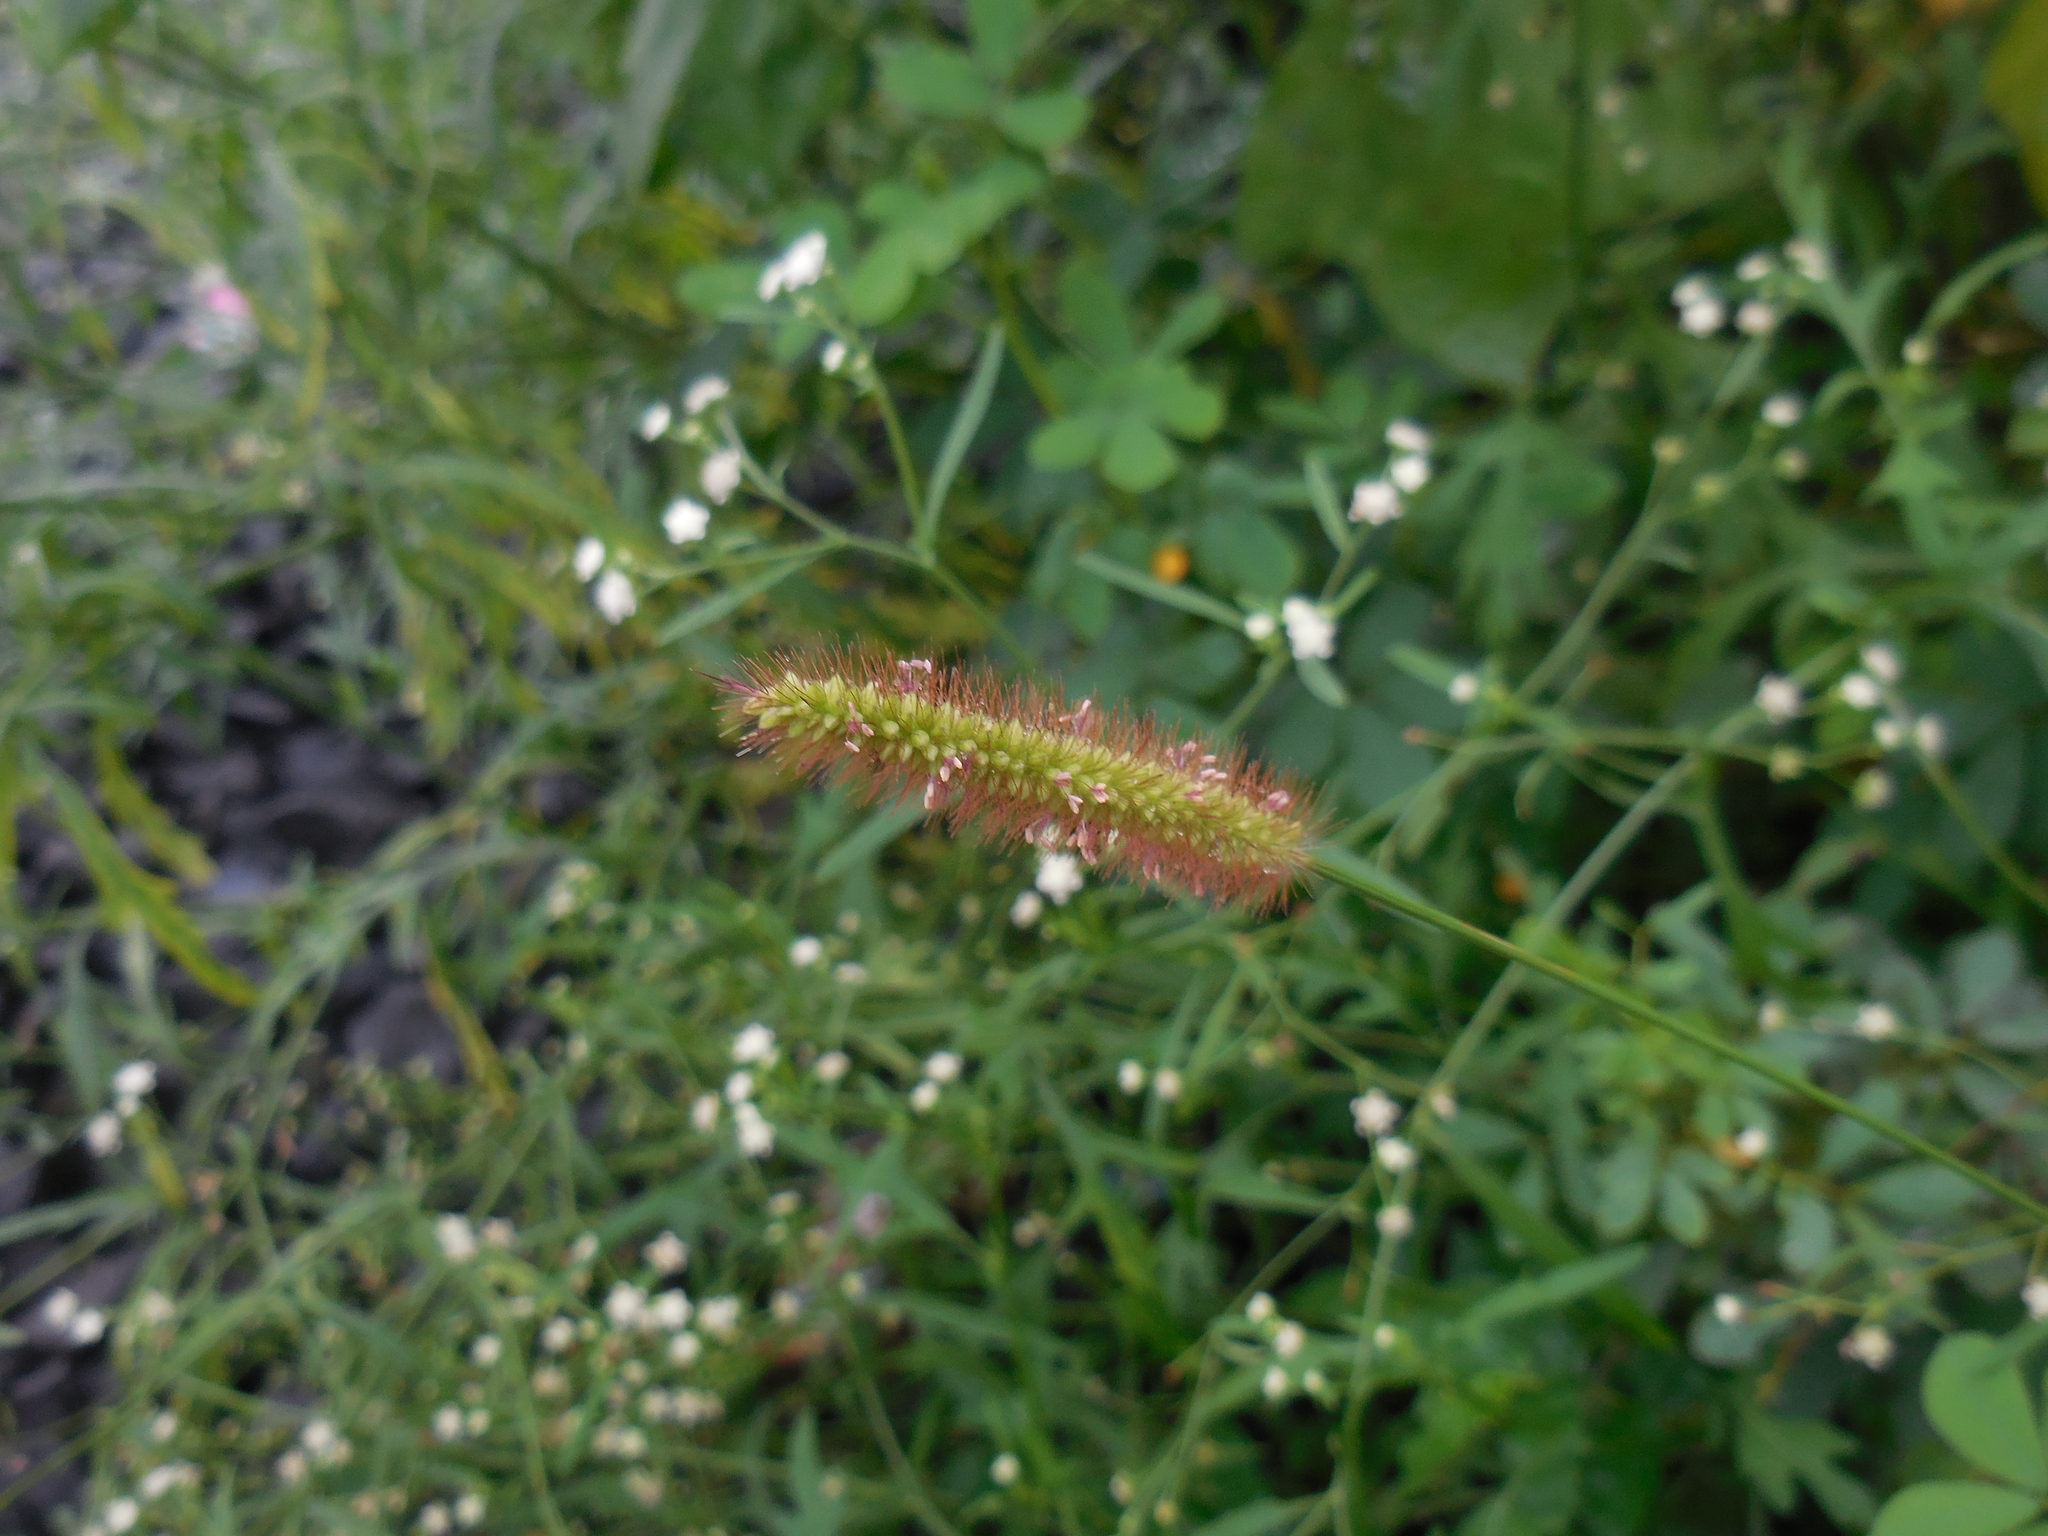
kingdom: Plantae
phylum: Tracheophyta
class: Liliopsida
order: Poales
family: Poaceae
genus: Setaria
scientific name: Setaria pumila
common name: Yellow bristle-grass
